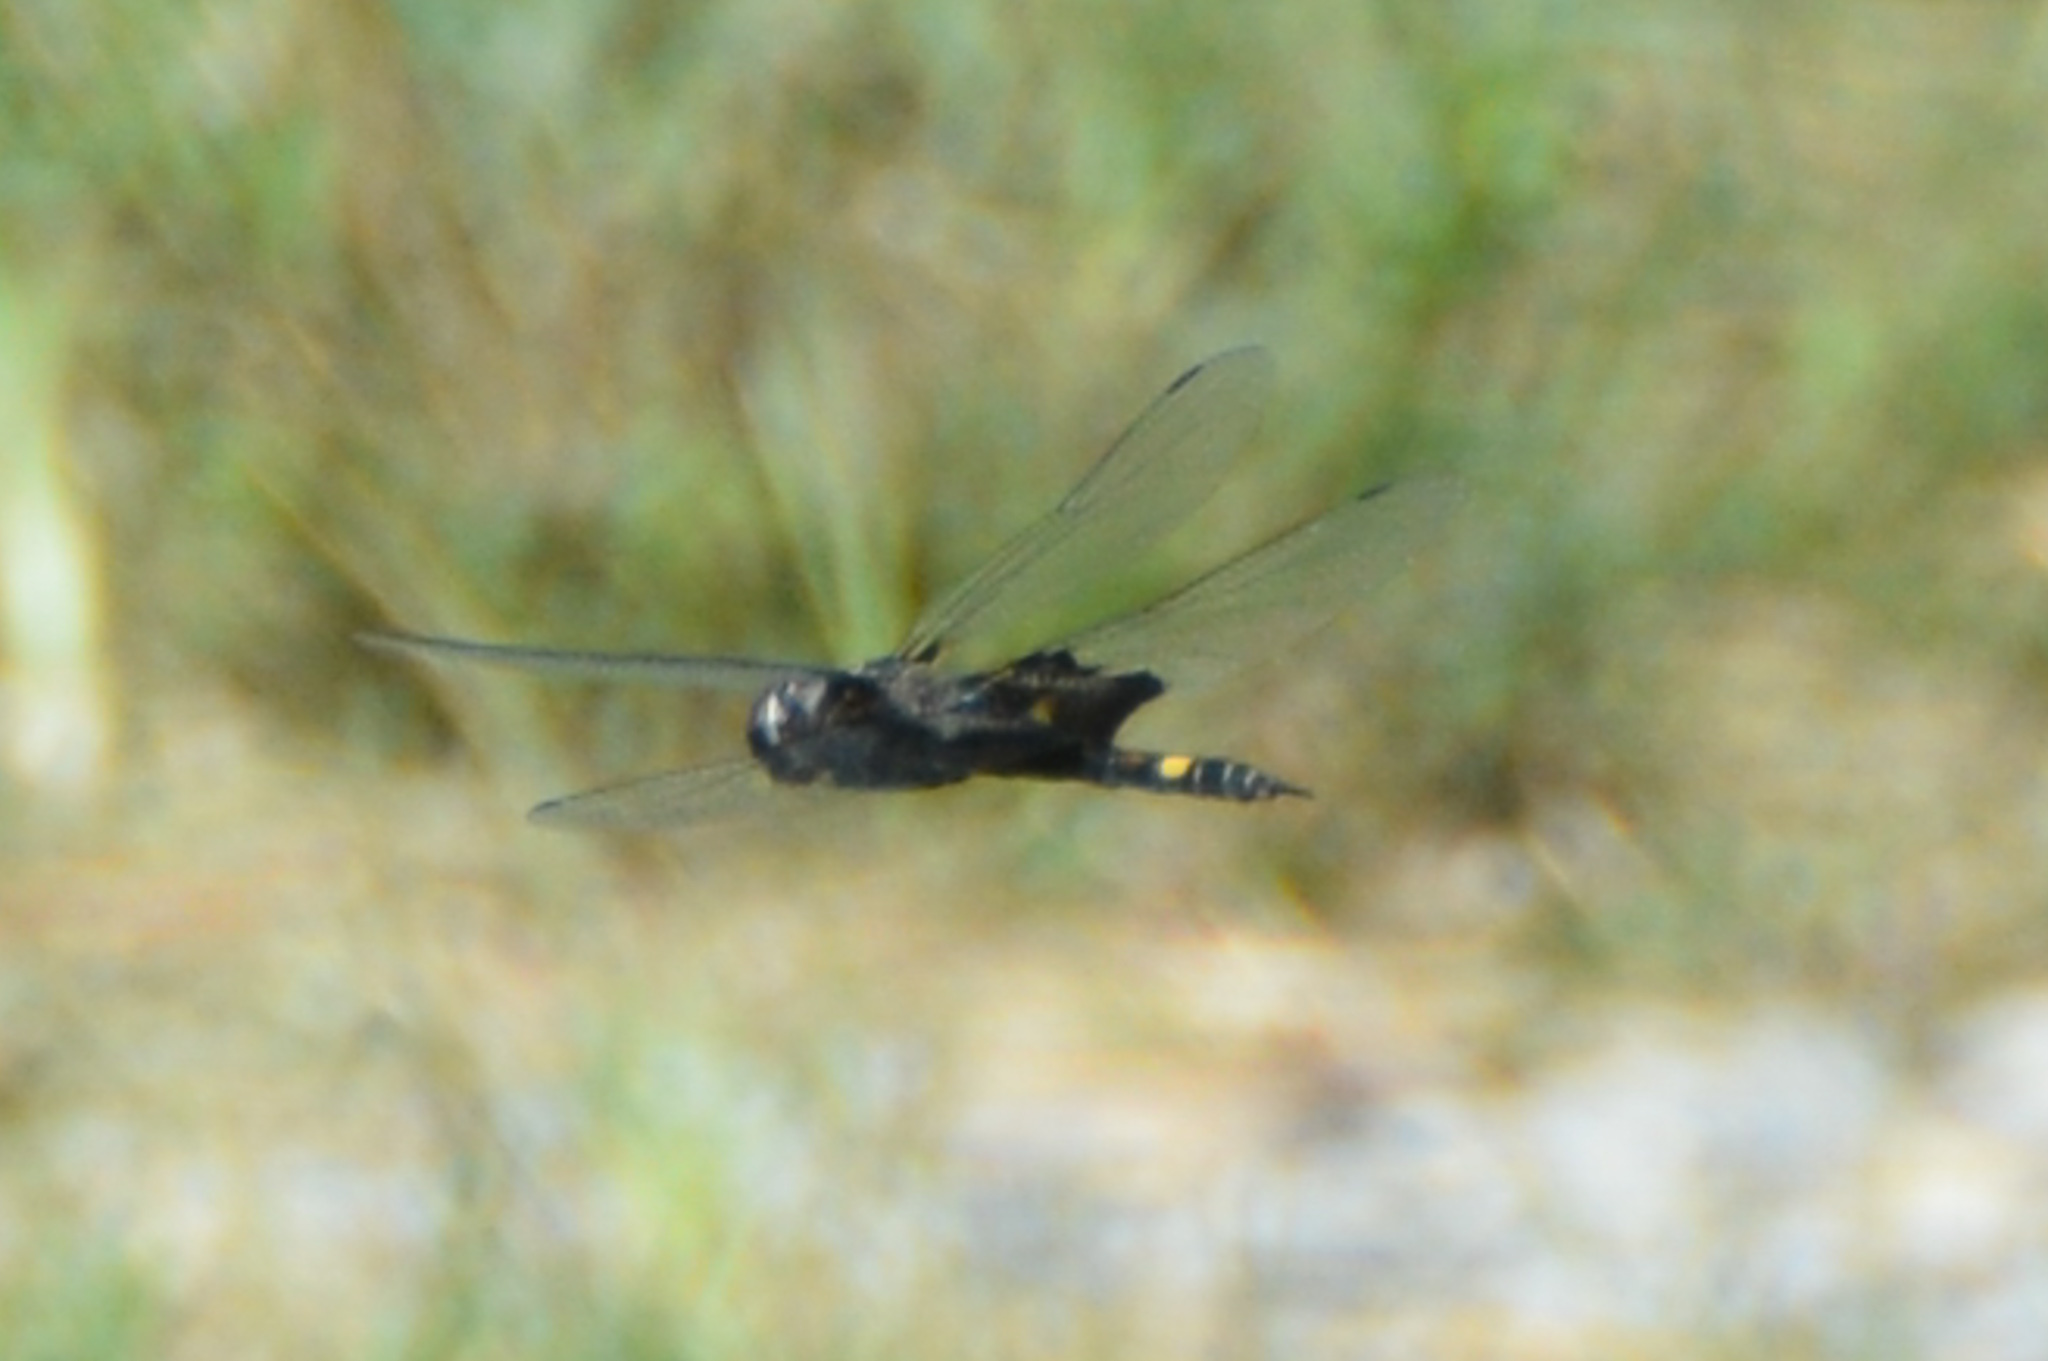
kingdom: Animalia
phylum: Arthropoda
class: Insecta
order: Odonata
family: Libellulidae
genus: Tramea
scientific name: Tramea lacerata
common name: Black saddlebags
